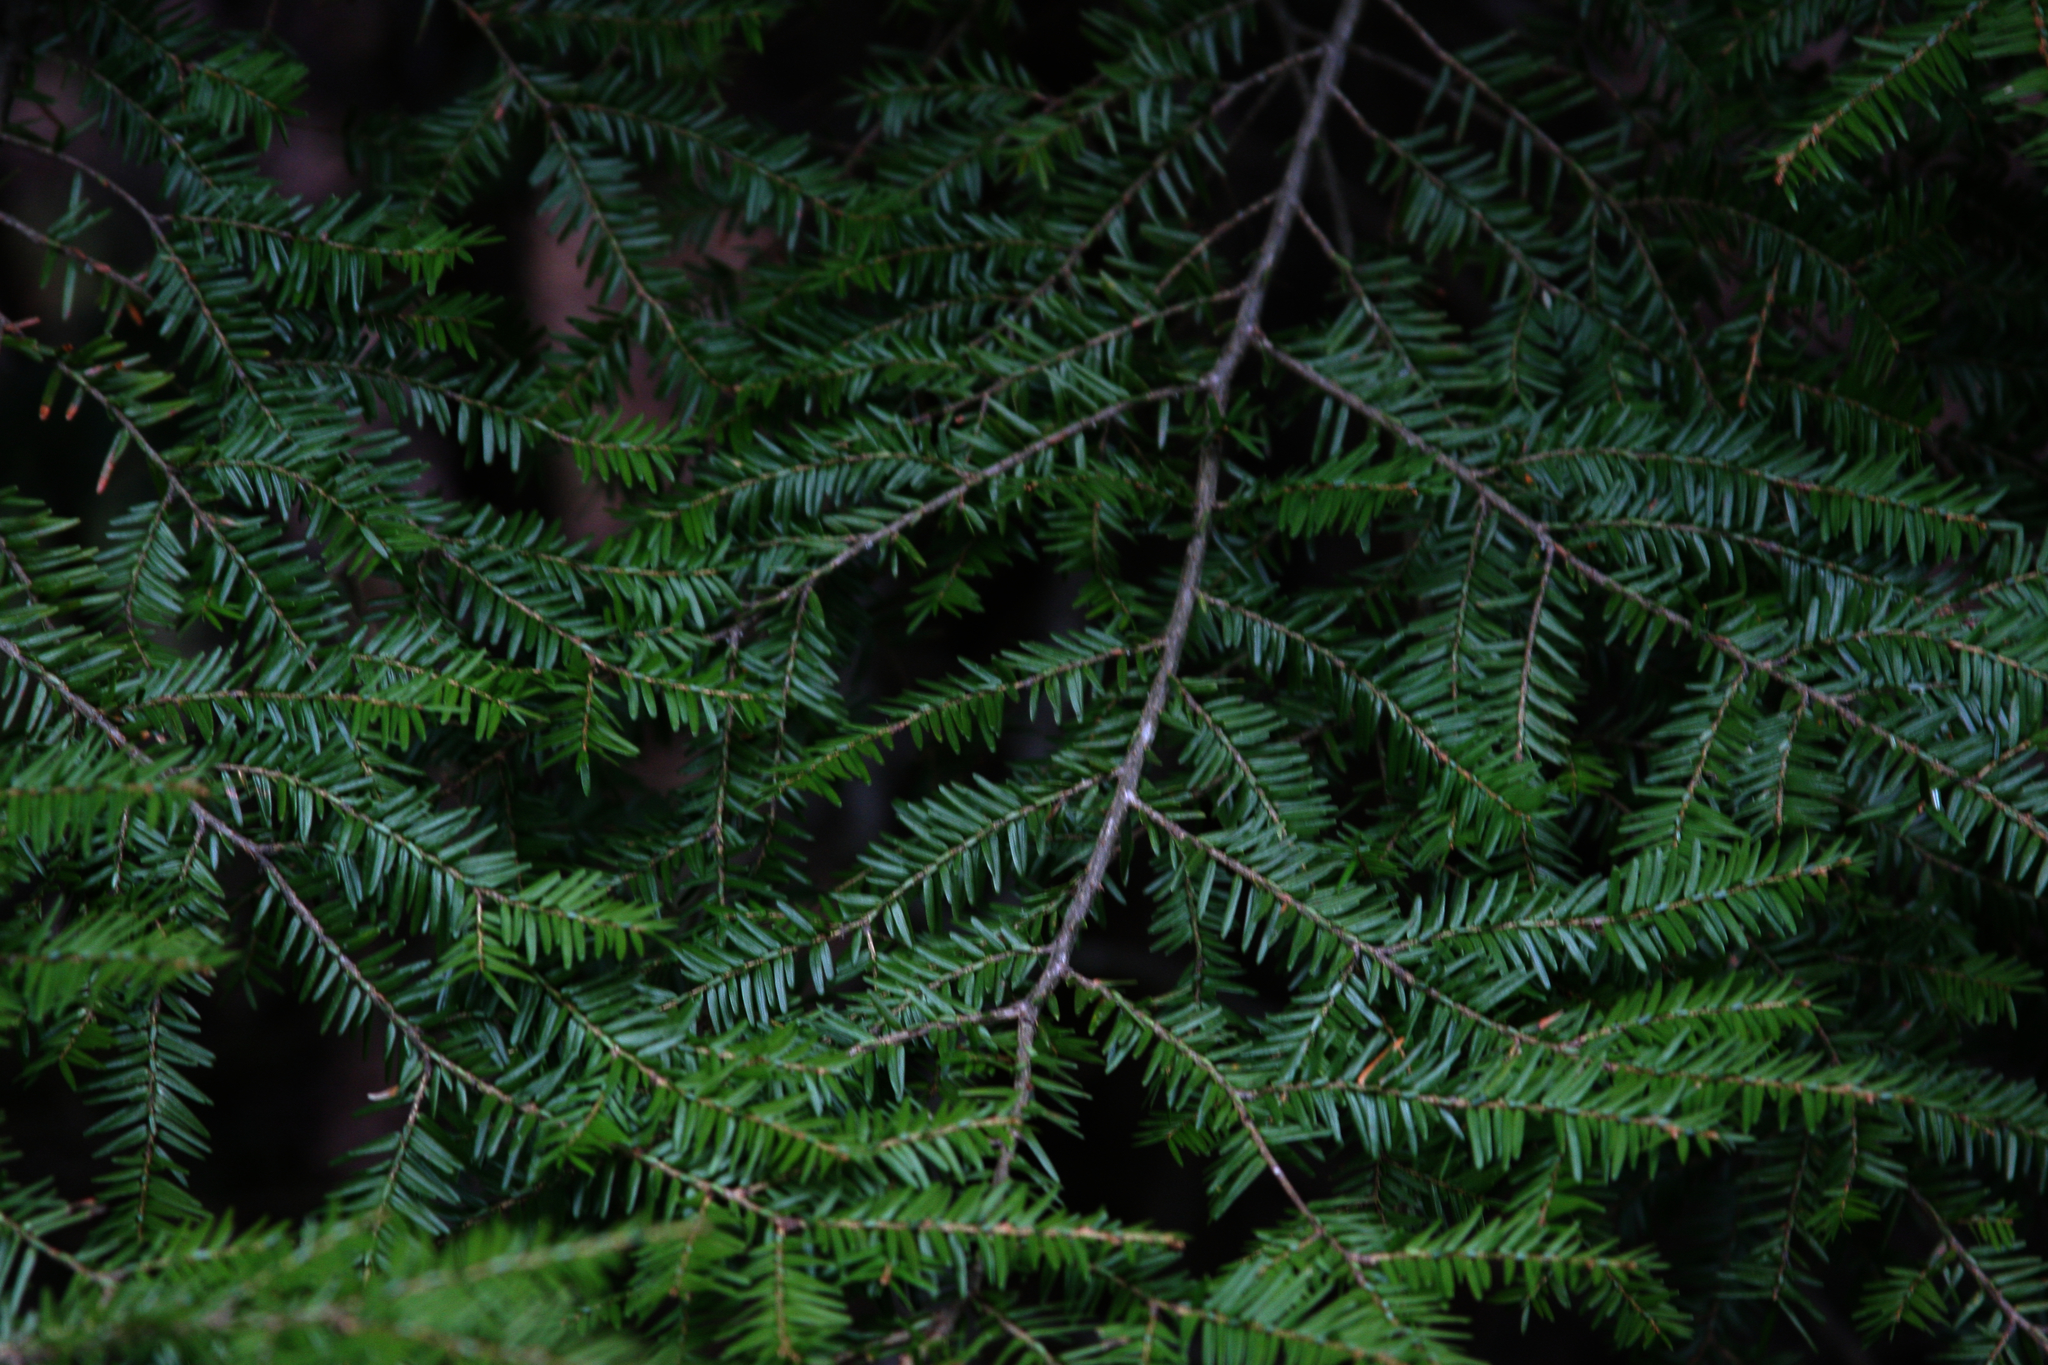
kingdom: Plantae
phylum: Tracheophyta
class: Pinopsida
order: Pinales
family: Pinaceae
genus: Tsuga
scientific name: Tsuga canadensis
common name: Eastern hemlock
